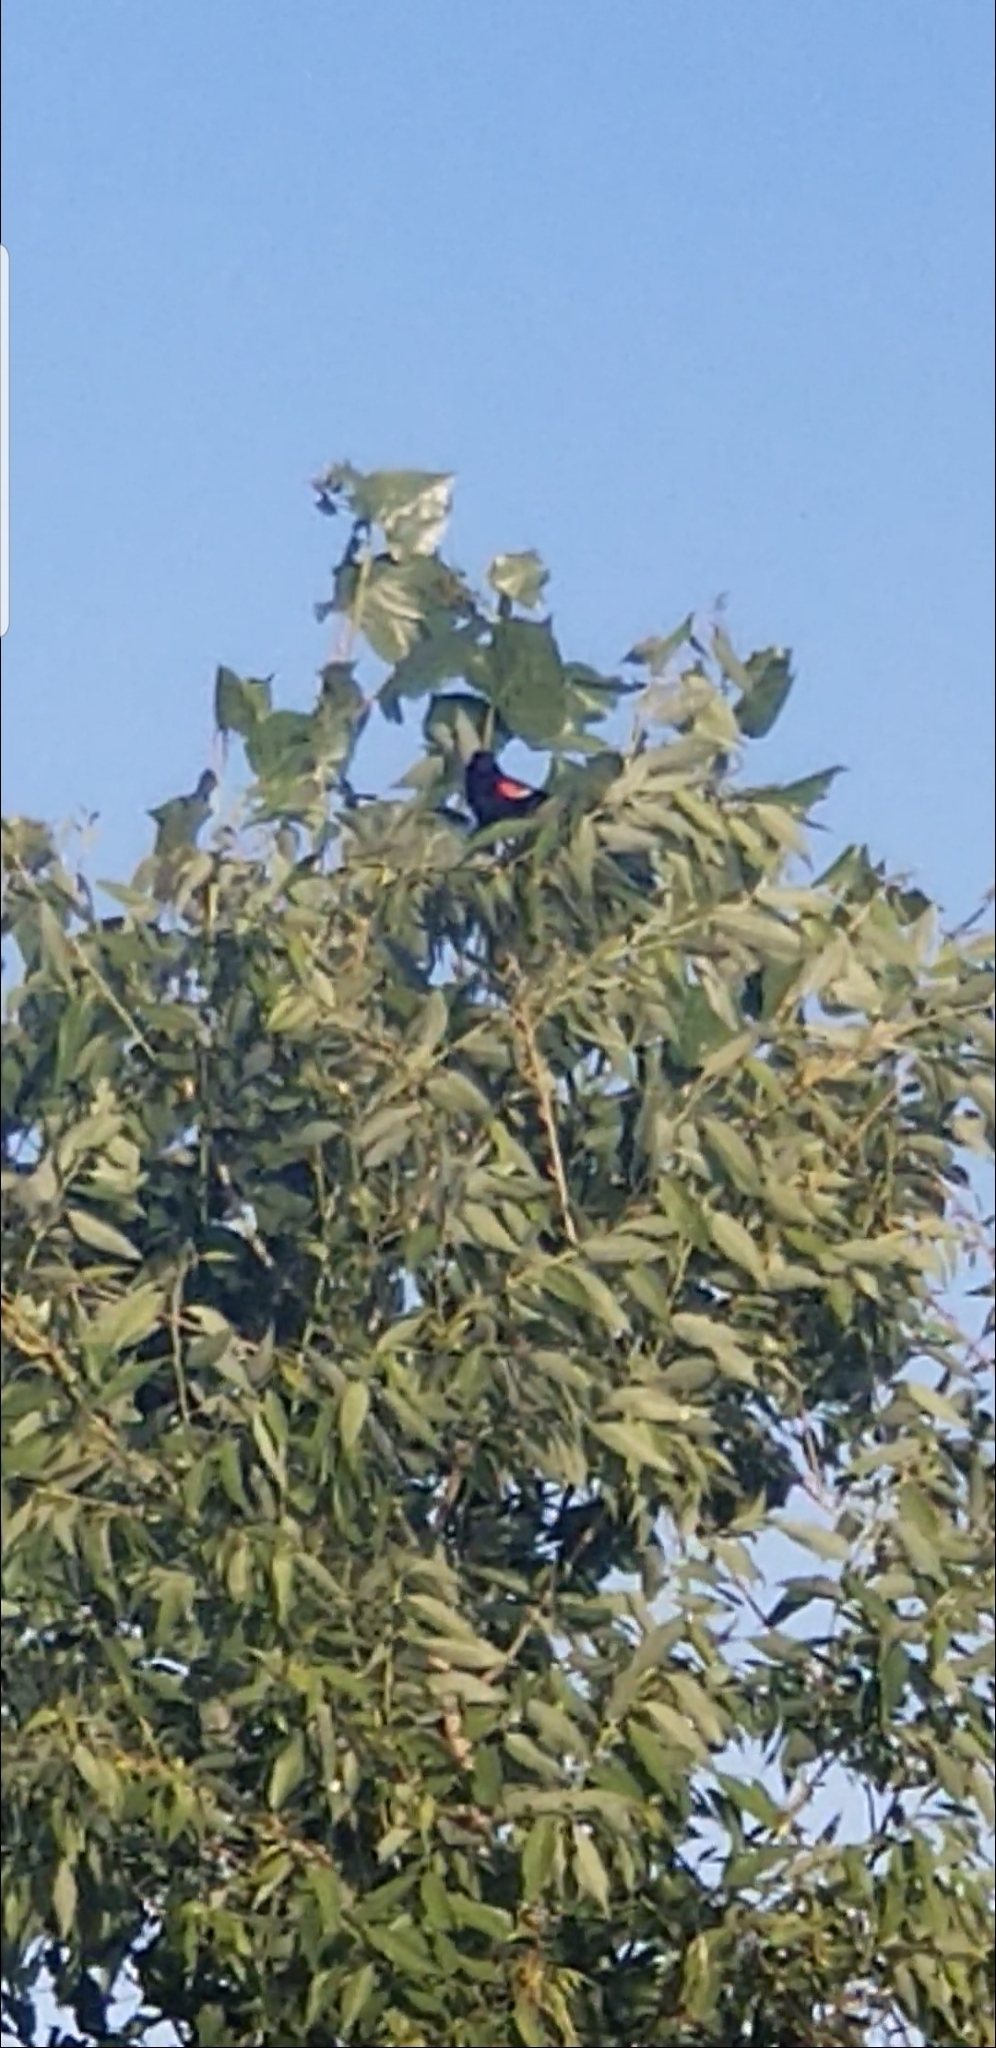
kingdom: Animalia
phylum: Chordata
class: Aves
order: Passeriformes
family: Icteridae
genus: Agelaius
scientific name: Agelaius phoeniceus
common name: Red-winged blackbird
